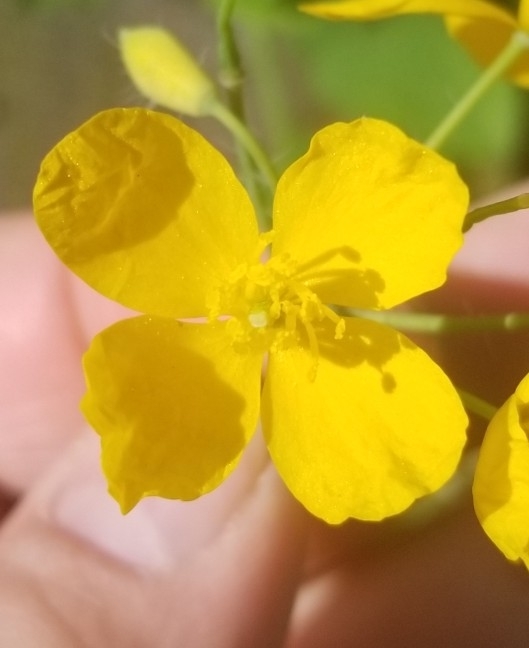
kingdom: Plantae
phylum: Tracheophyta
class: Magnoliopsida
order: Ranunculales
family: Papaveraceae
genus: Chelidonium
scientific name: Chelidonium majus
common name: Greater celandine
